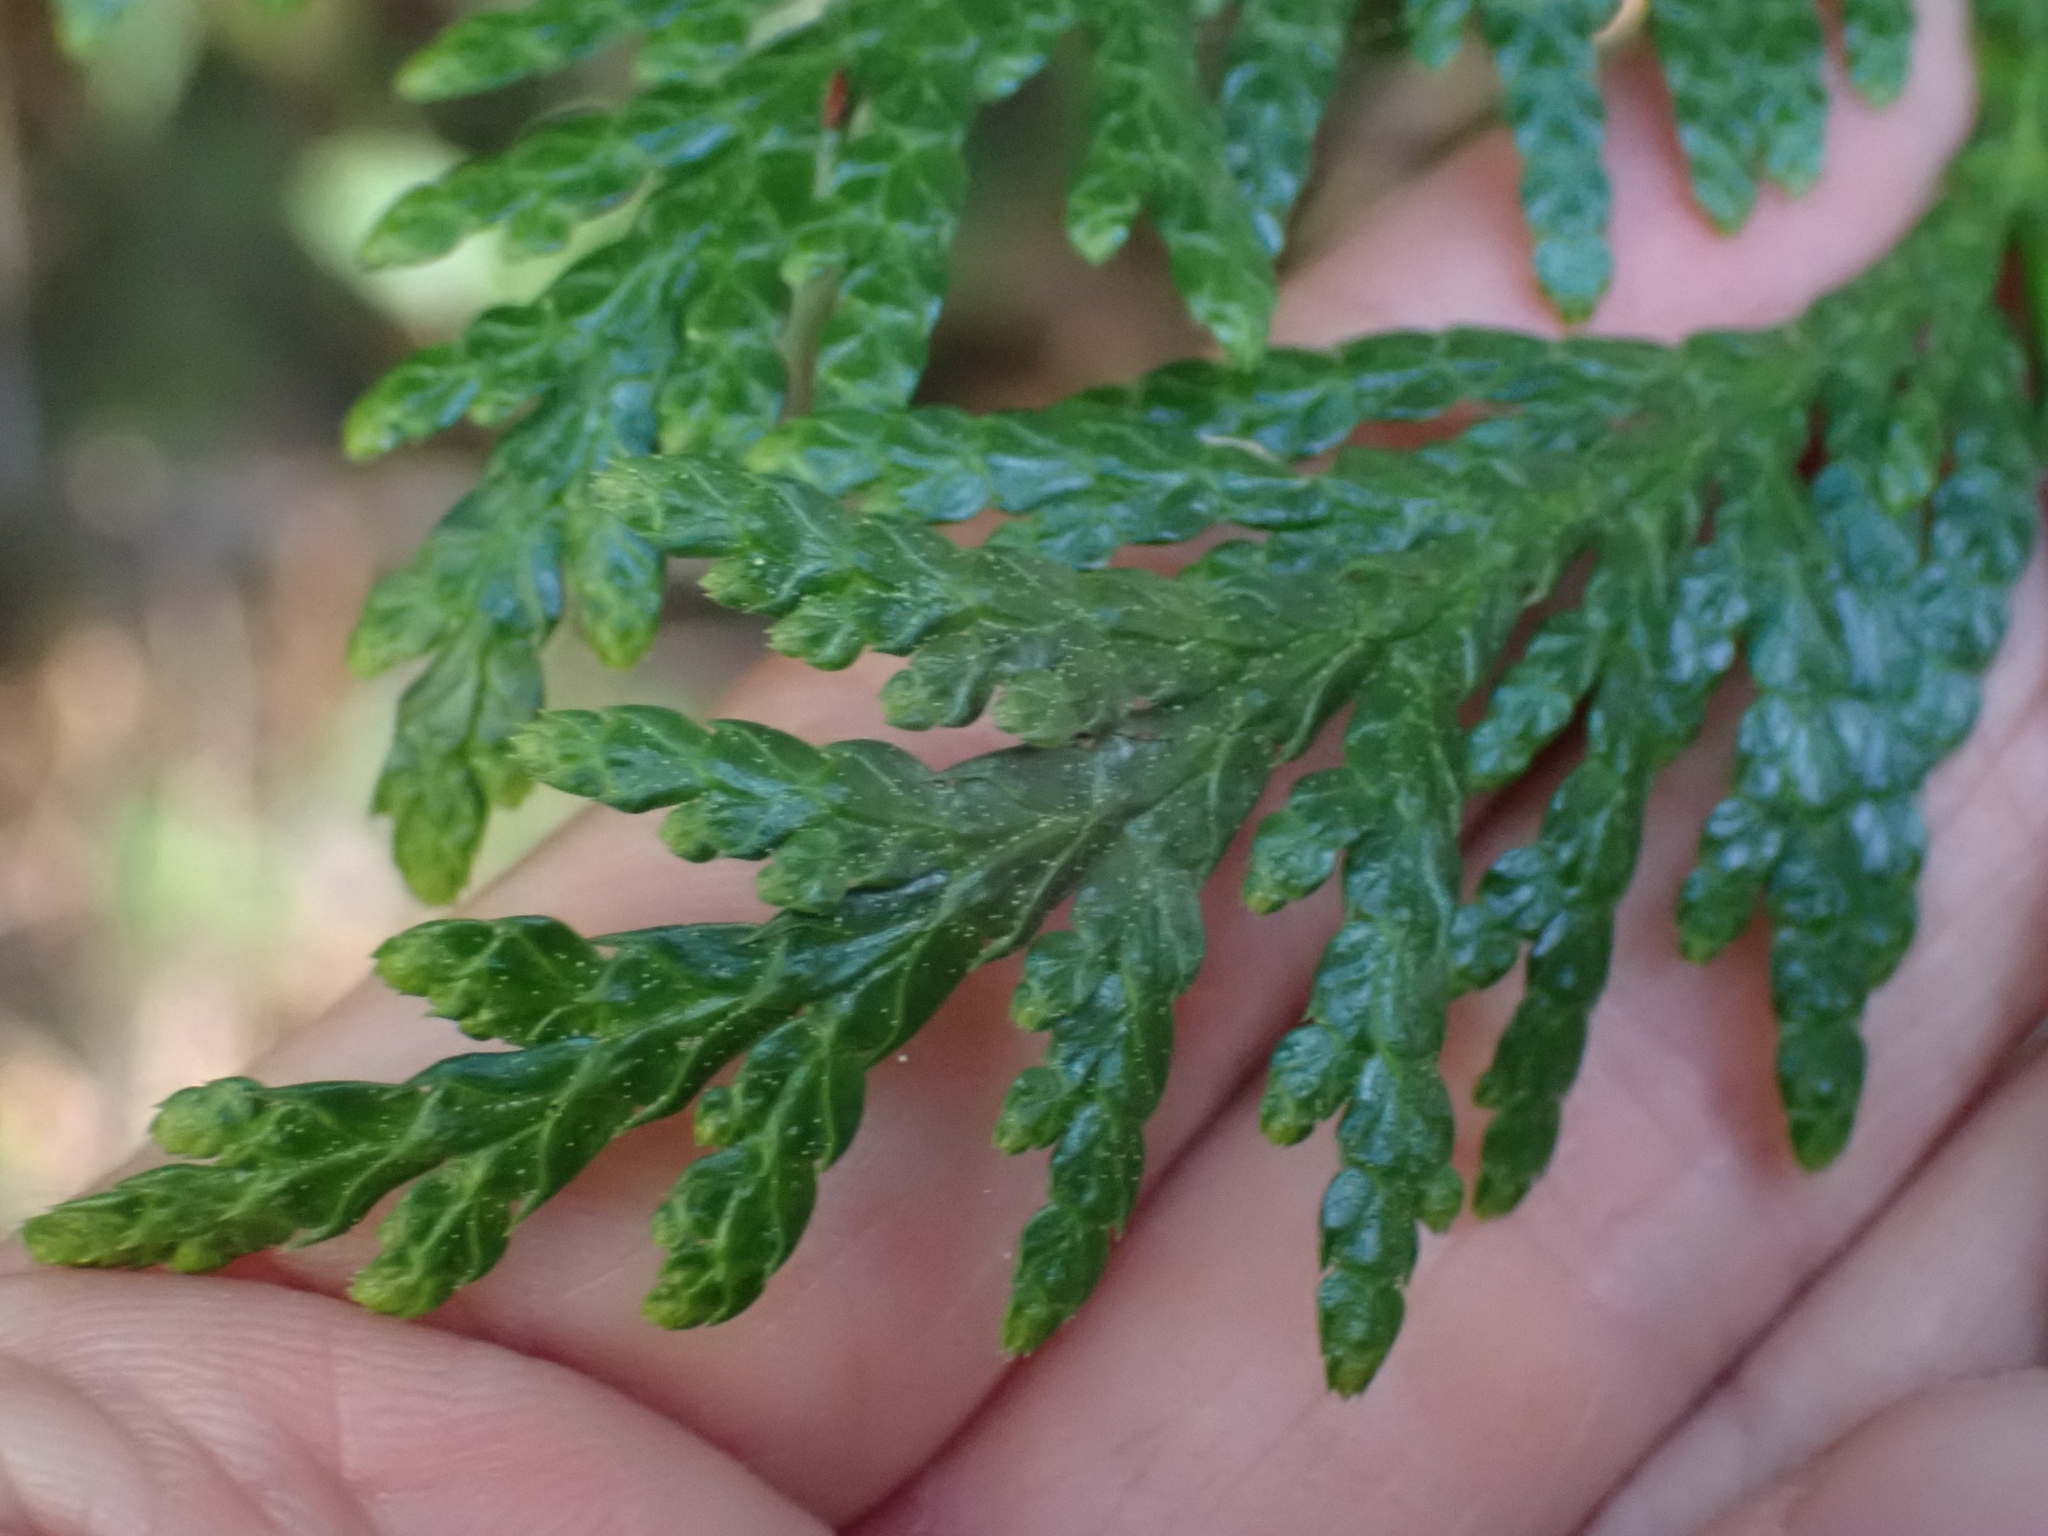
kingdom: Plantae
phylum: Tracheophyta
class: Pinopsida
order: Pinales
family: Cupressaceae
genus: Thuja
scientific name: Thuja plicata
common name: Western red-cedar
